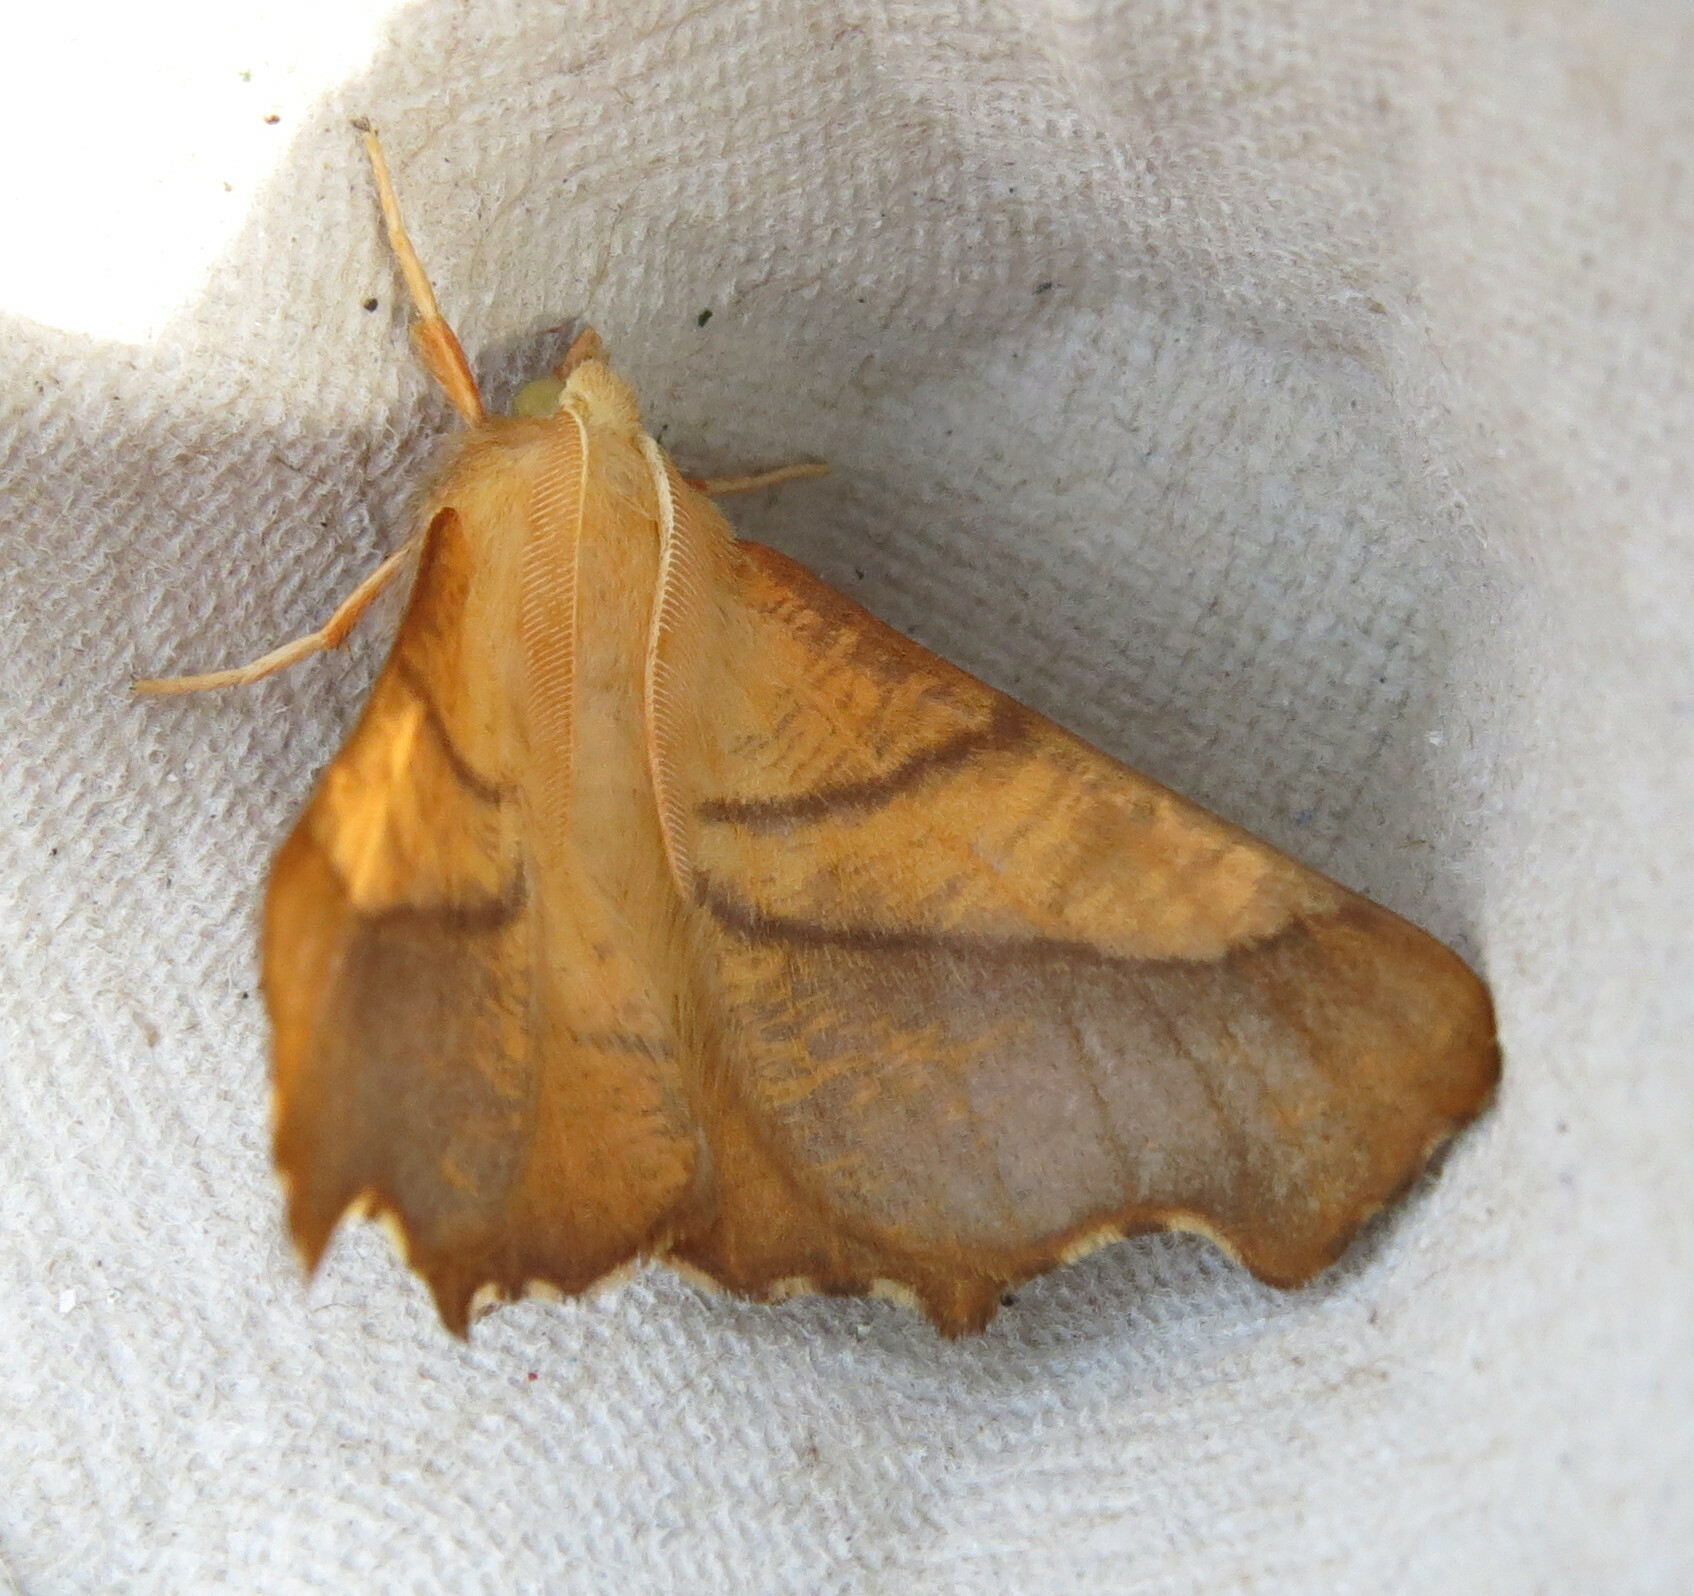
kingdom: Animalia
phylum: Arthropoda
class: Insecta
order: Lepidoptera
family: Geometridae
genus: Ennomos
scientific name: Ennomos fuscantaria
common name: Dusky thorn
